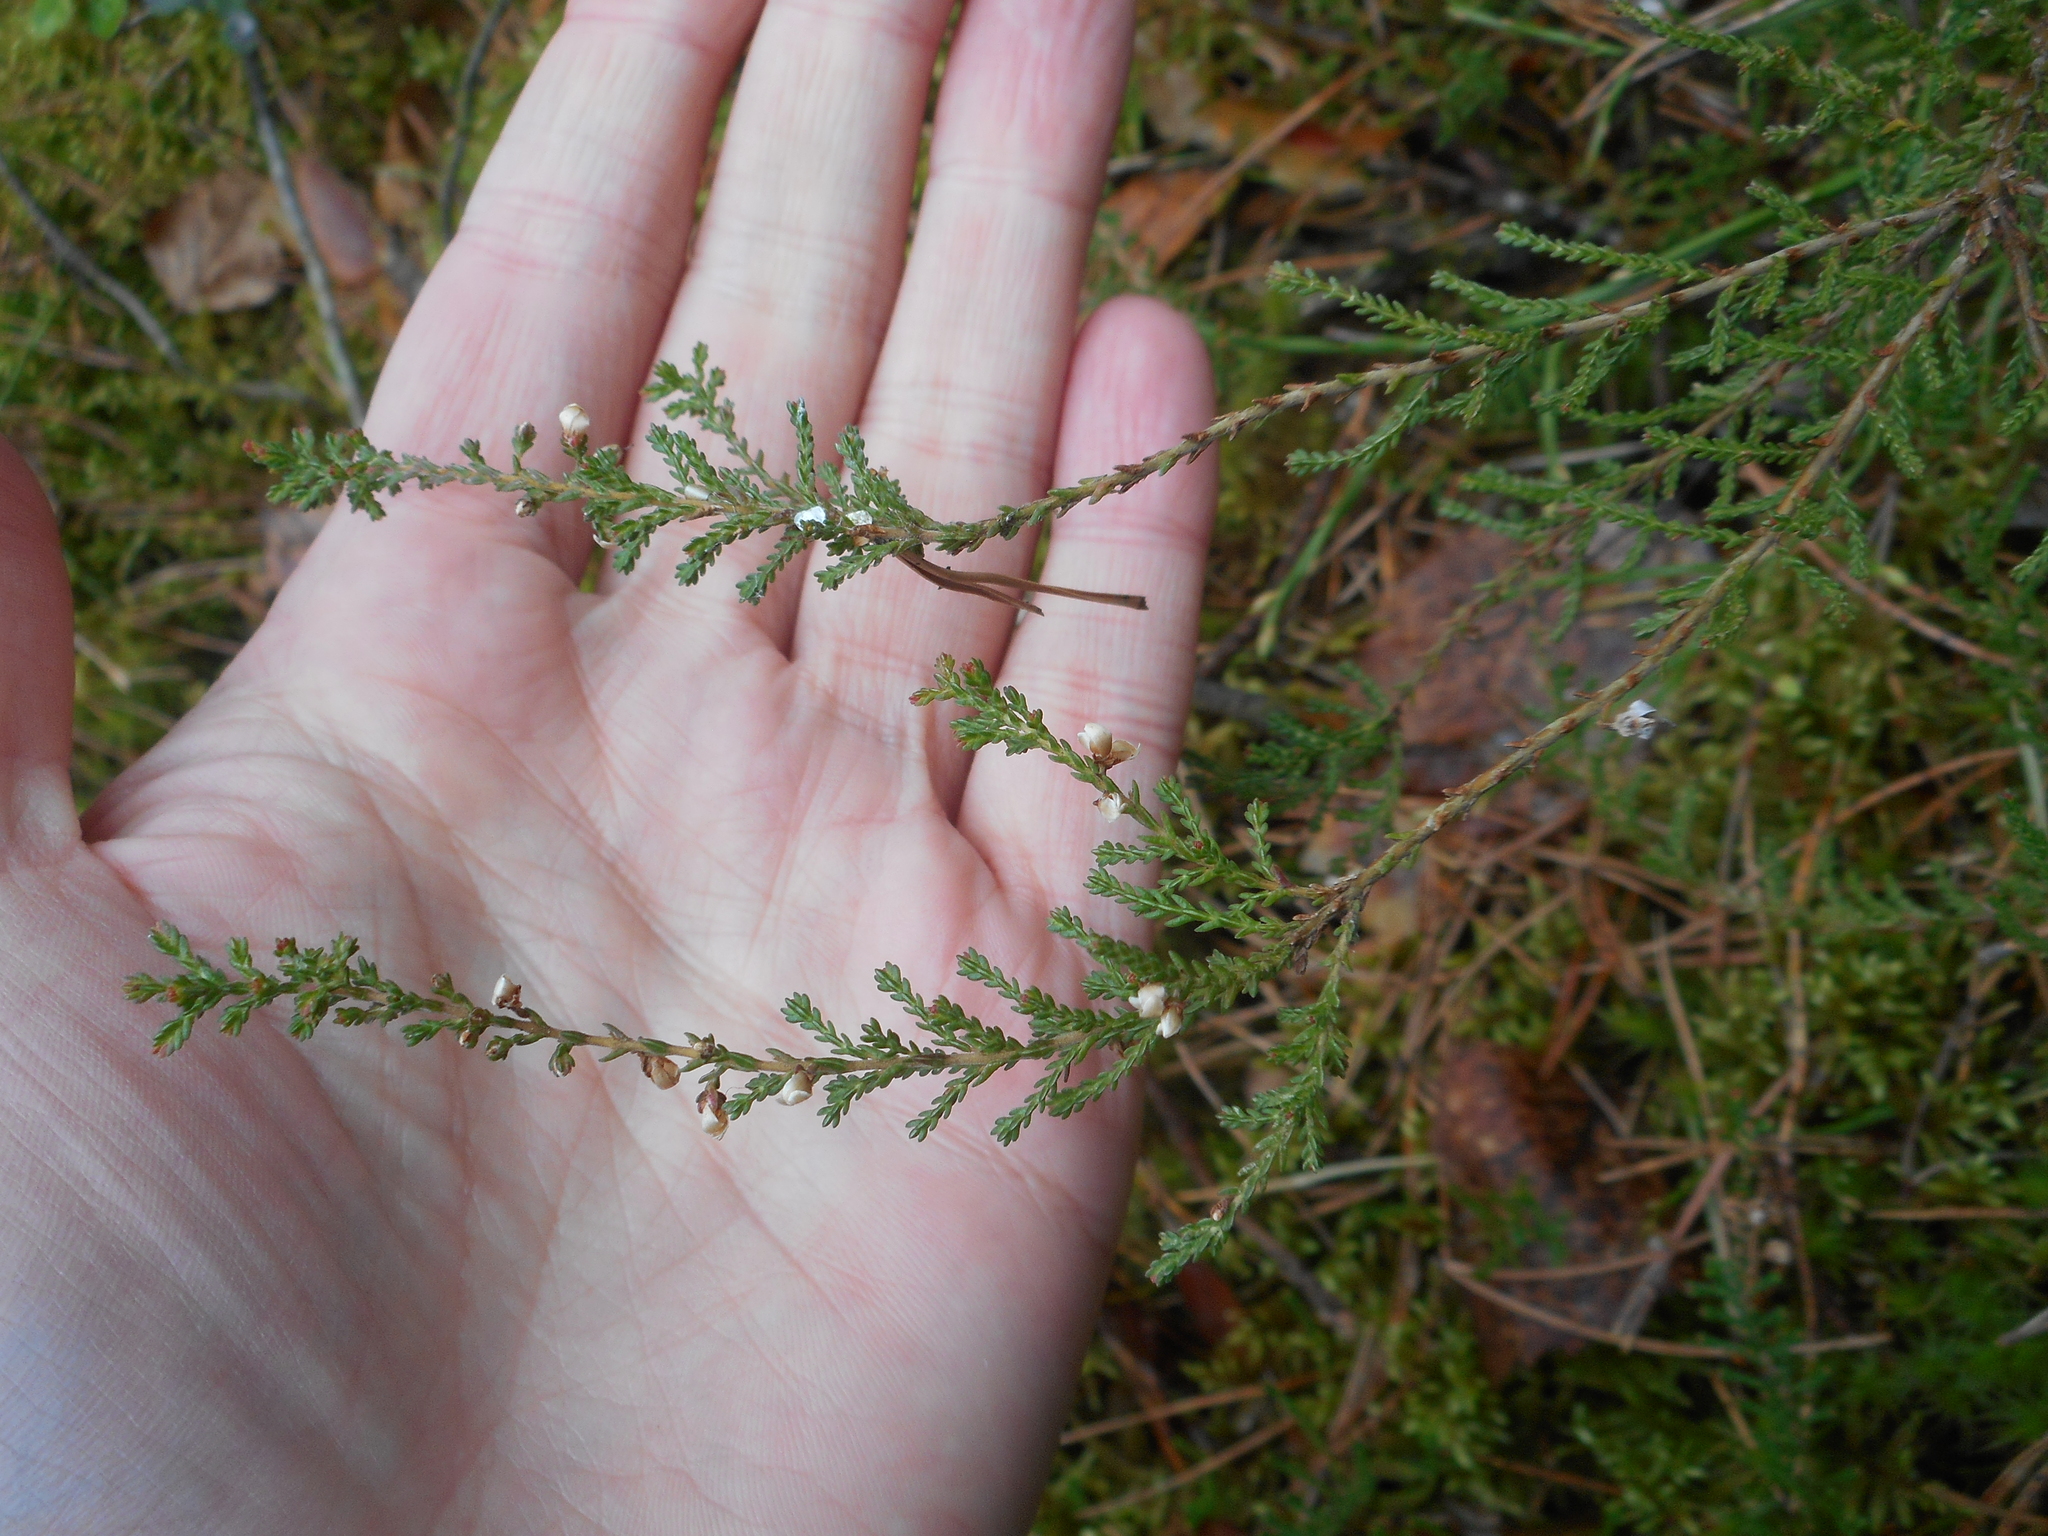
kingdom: Plantae
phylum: Tracheophyta
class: Magnoliopsida
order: Ericales
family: Ericaceae
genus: Calluna
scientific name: Calluna vulgaris
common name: Heather
